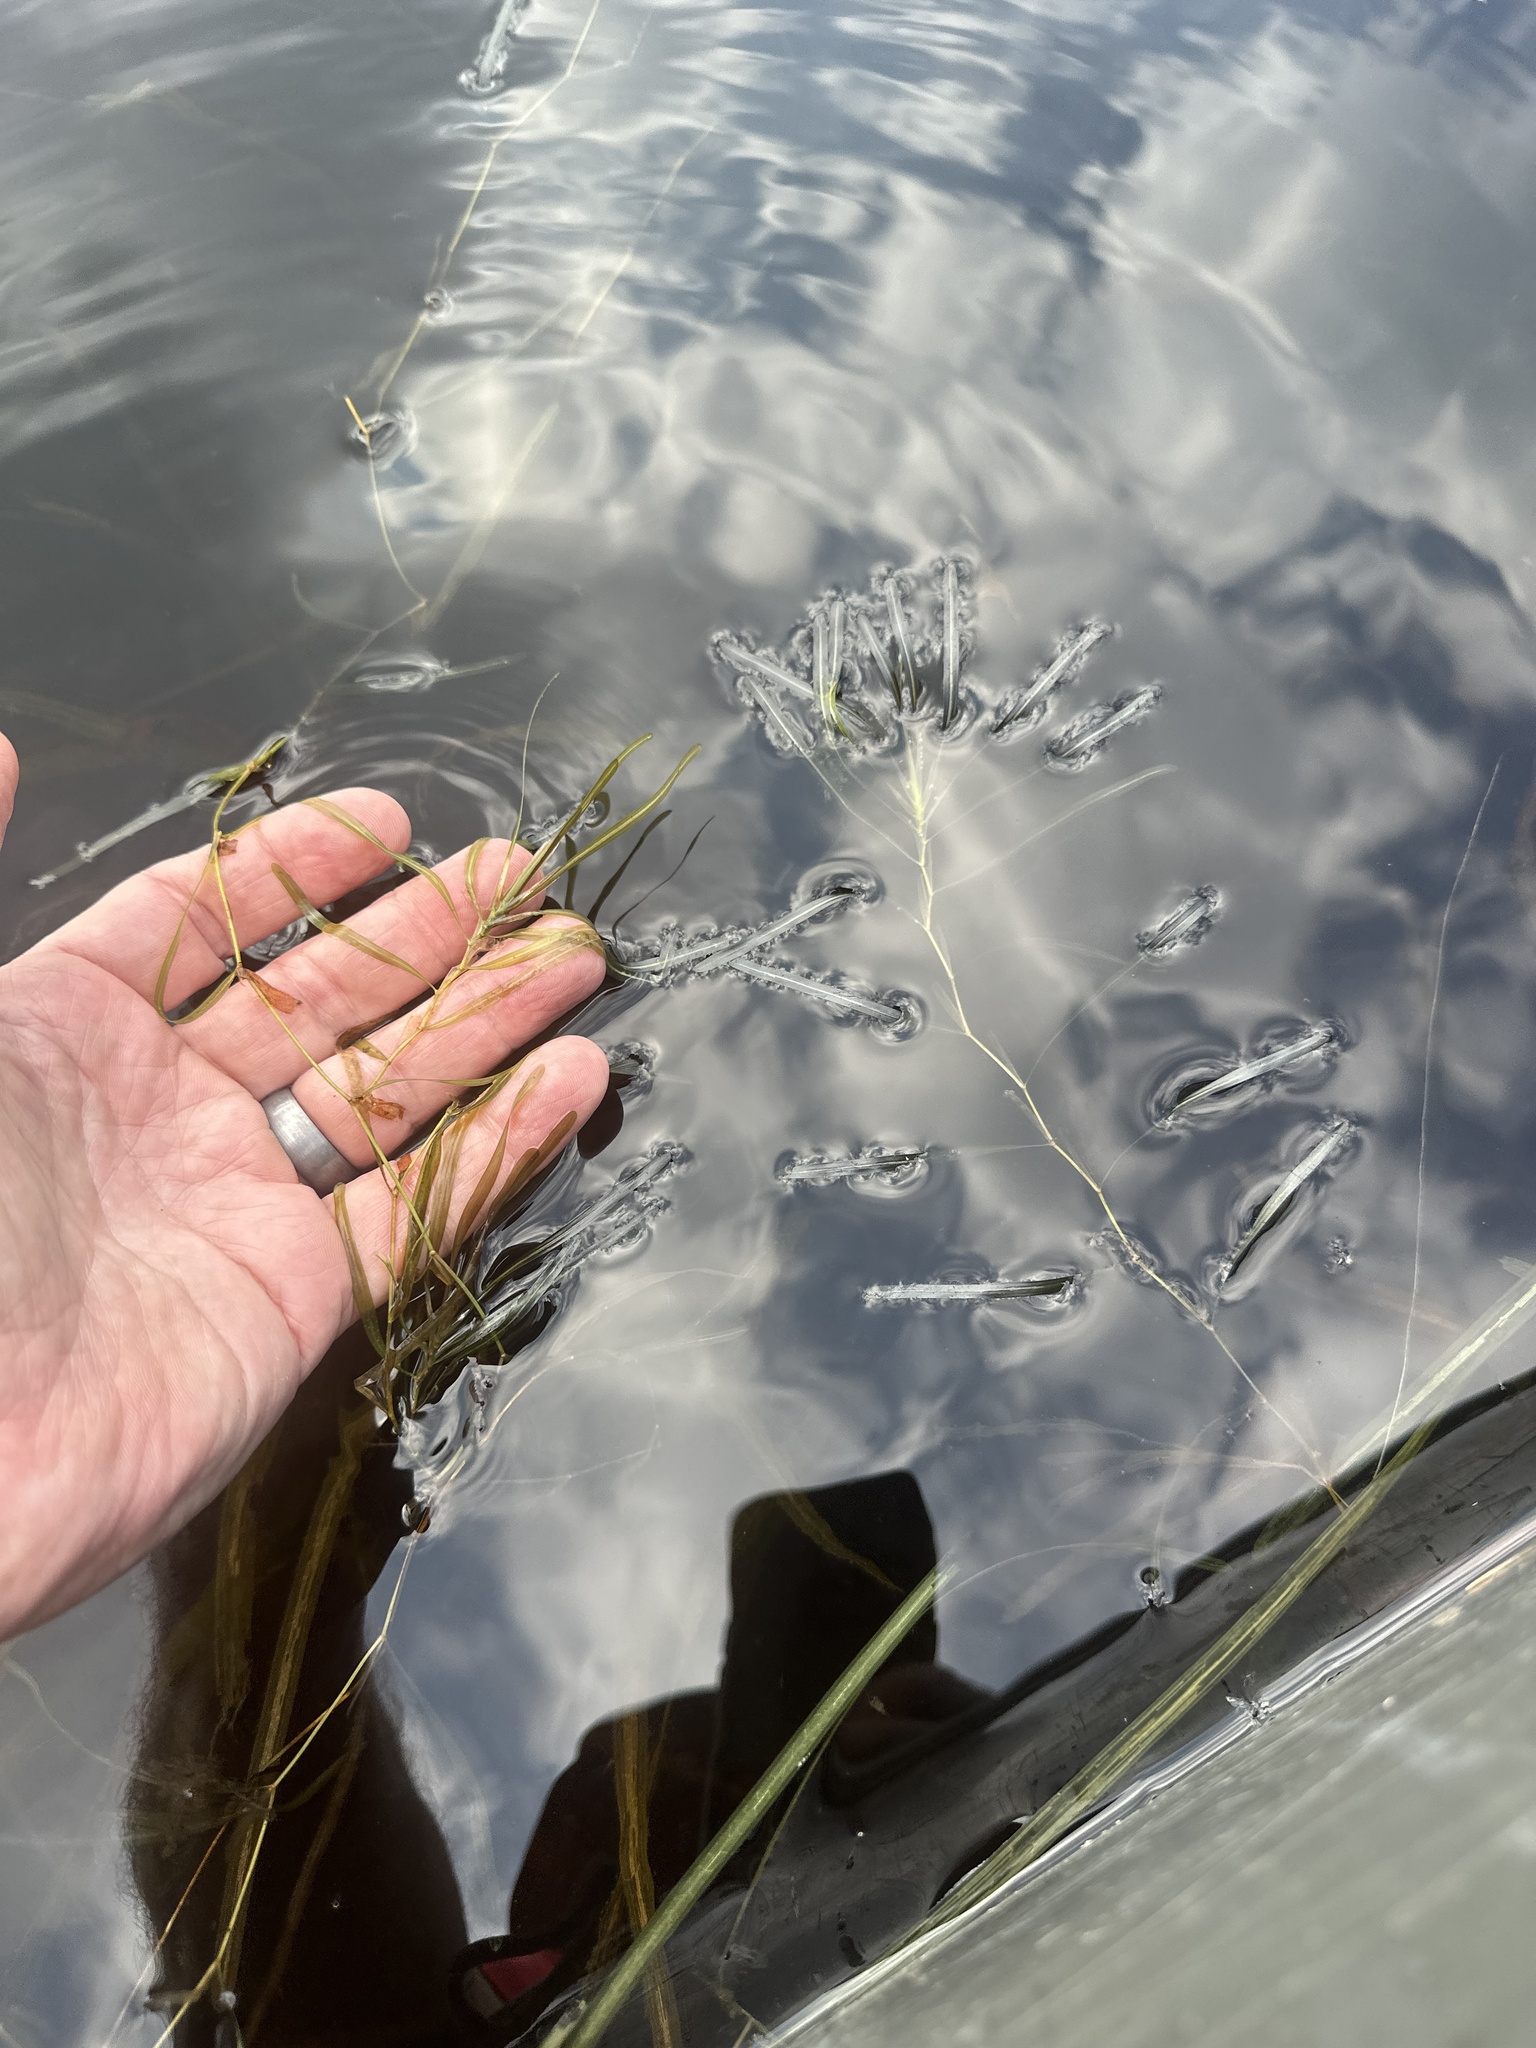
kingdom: Plantae
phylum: Tracheophyta
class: Liliopsida
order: Alismatales
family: Potamogetonaceae
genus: Potamogeton
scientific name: Potamogeton obtusifolius
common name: Blunt-leaved pondweed
